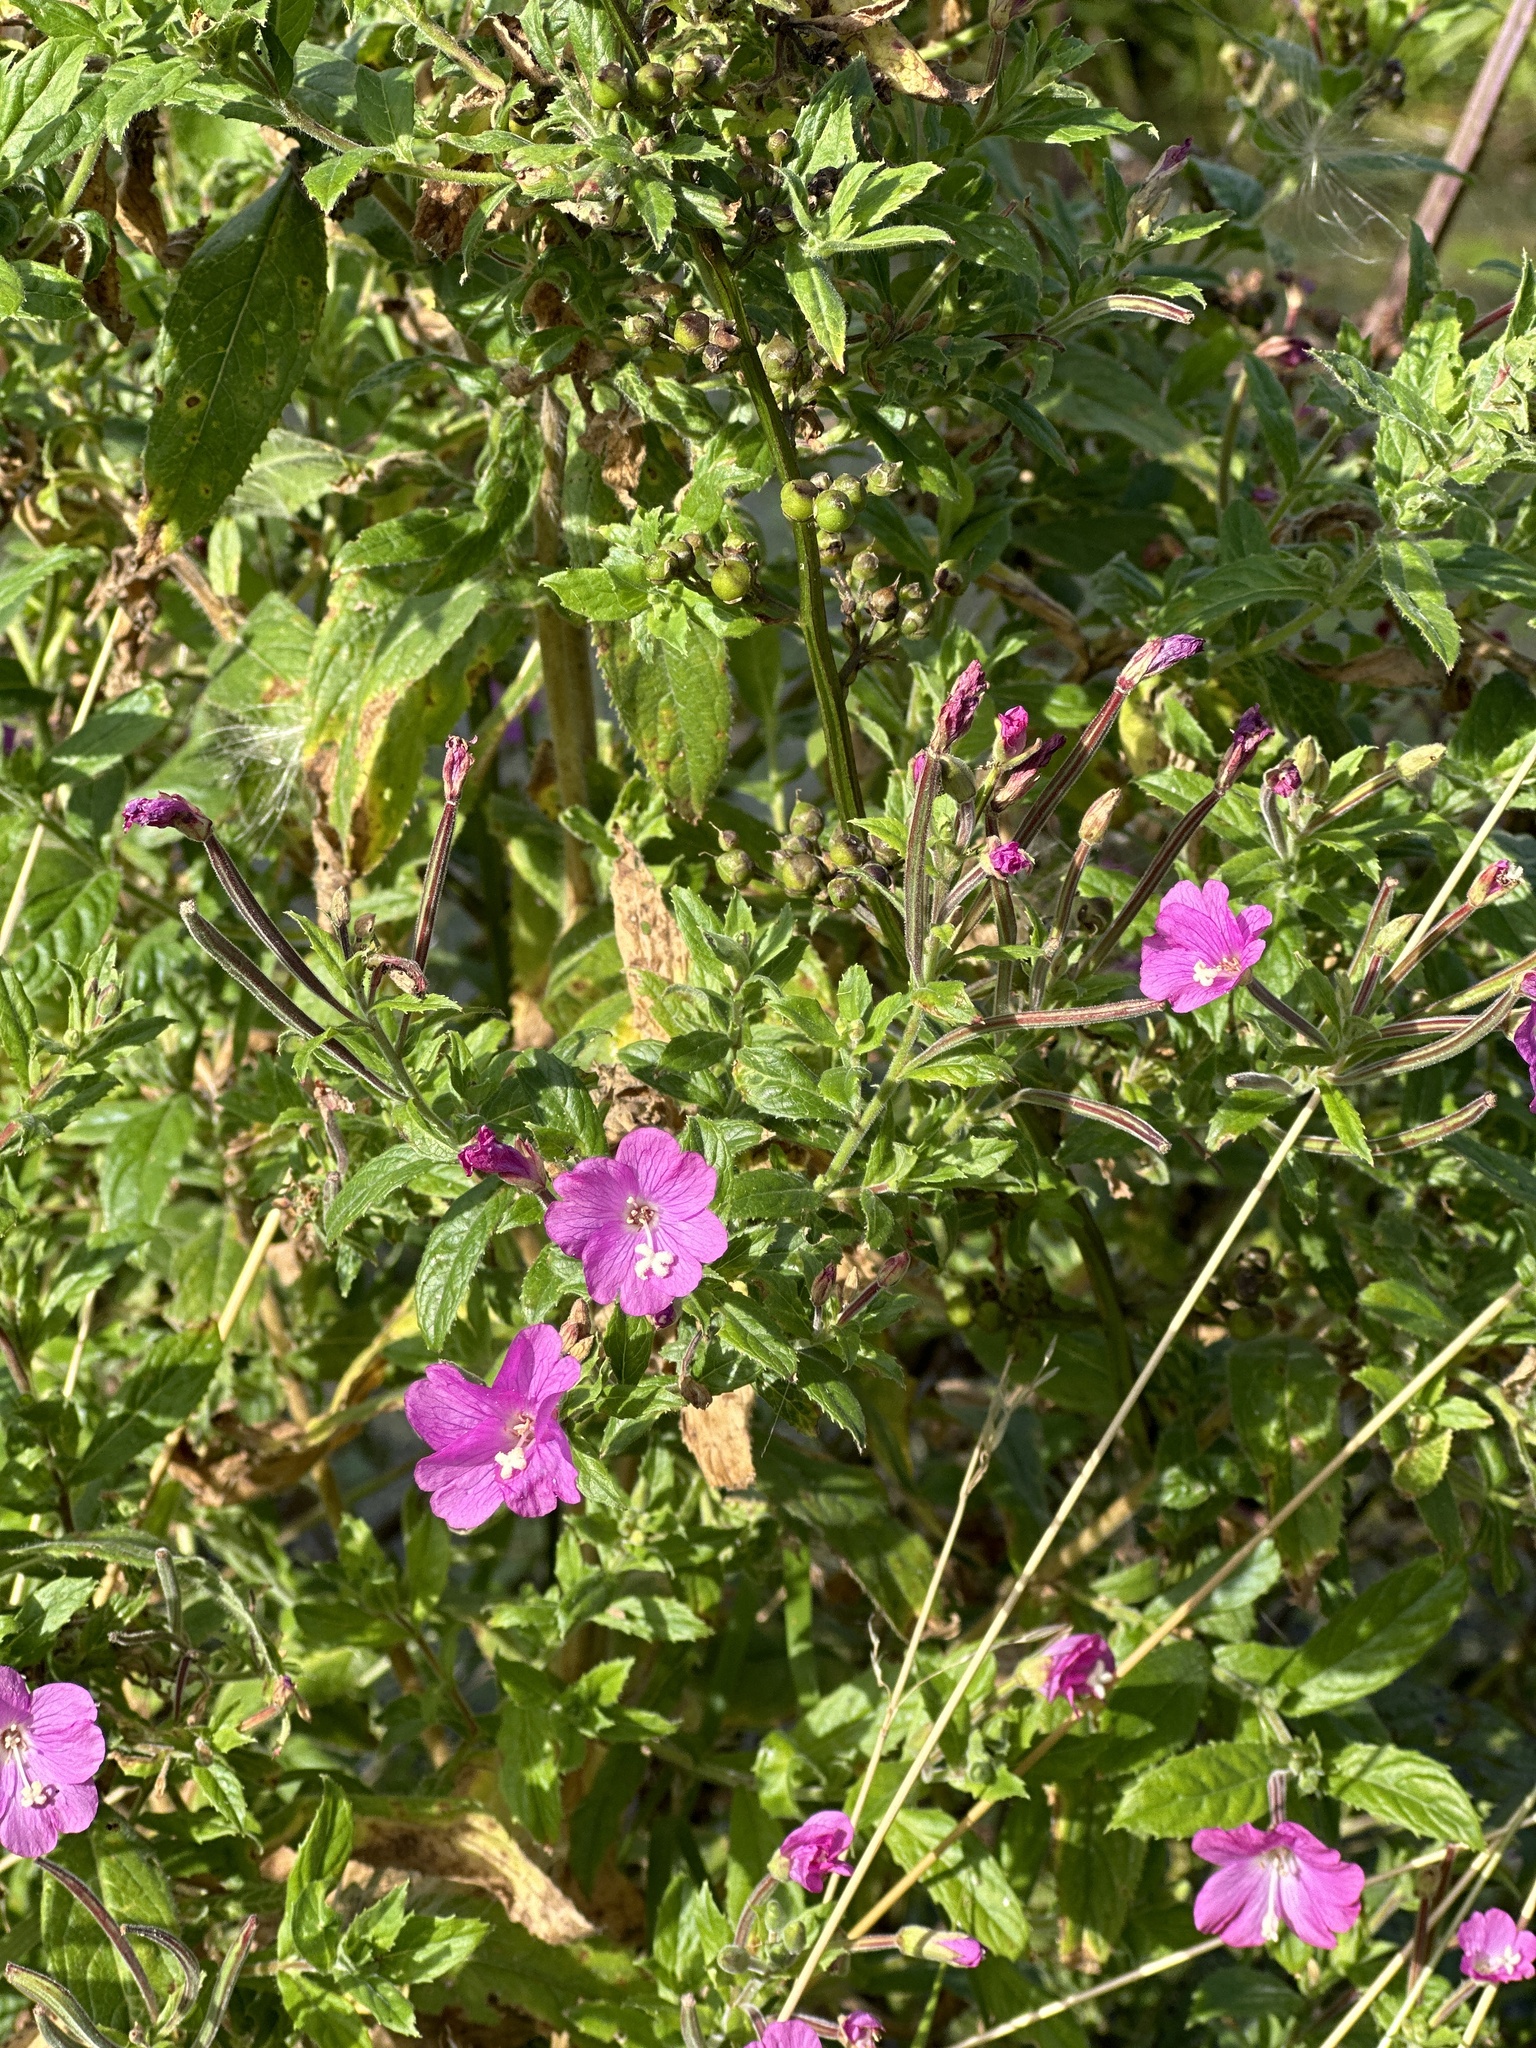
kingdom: Plantae
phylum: Tracheophyta
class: Magnoliopsida
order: Myrtales
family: Onagraceae
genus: Epilobium
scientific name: Epilobium hirsutum
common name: Great willowherb
